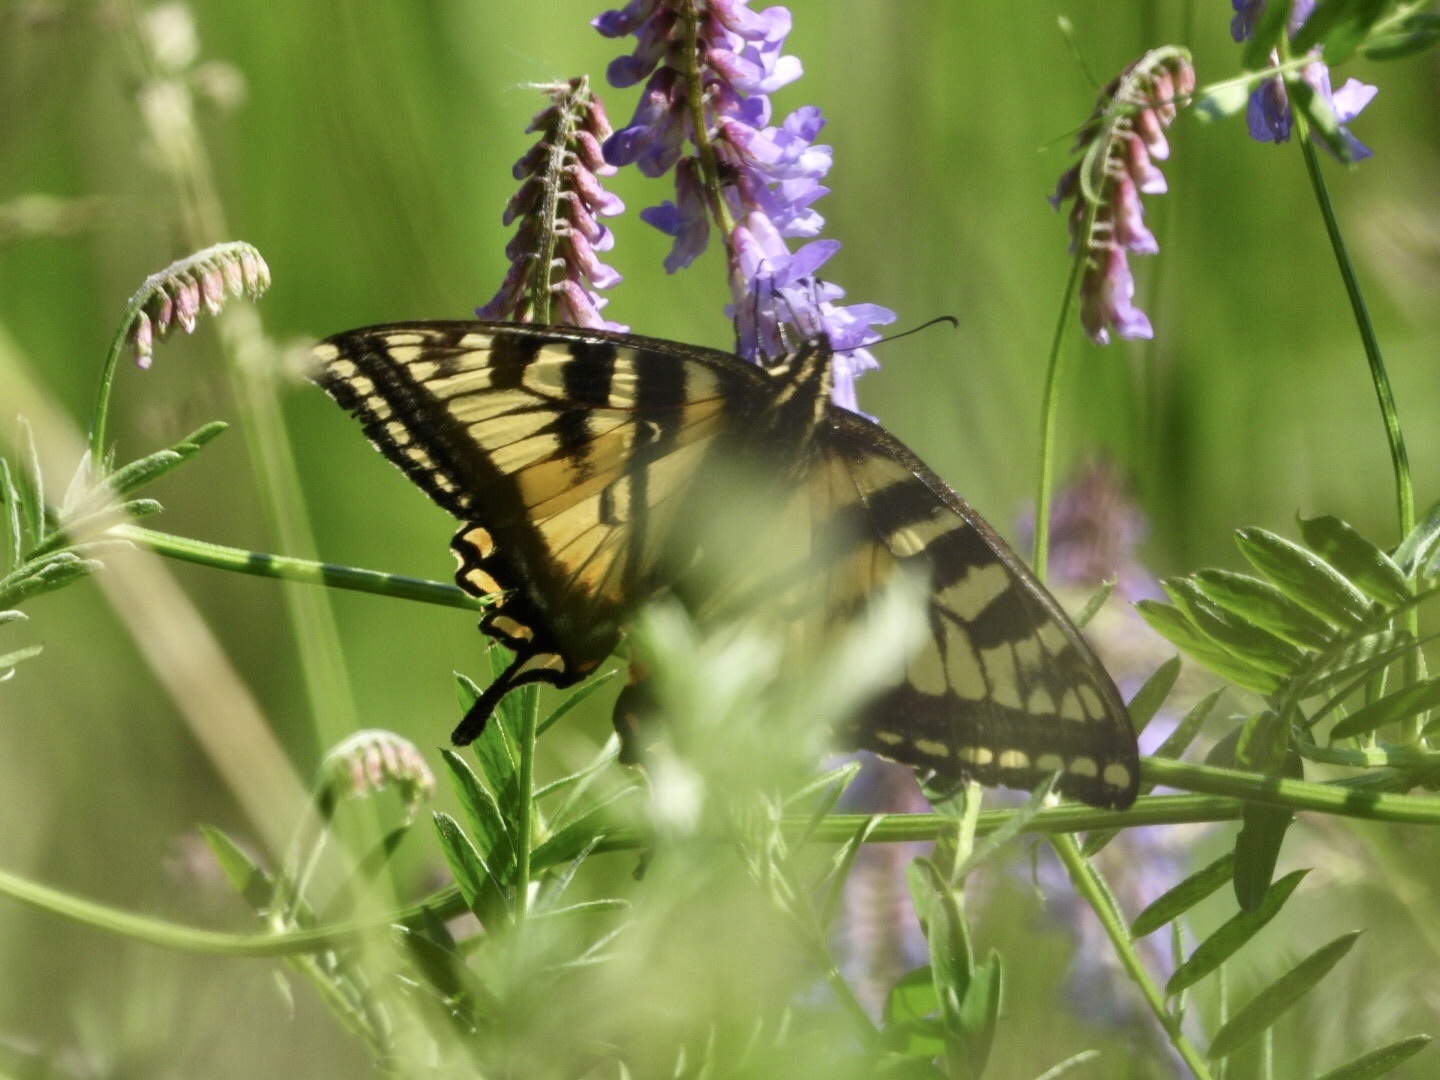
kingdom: Animalia
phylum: Arthropoda
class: Insecta
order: Lepidoptera
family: Papilionidae
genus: Papilio
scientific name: Papilio canadensis
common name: Canadian tiger swallowtail
